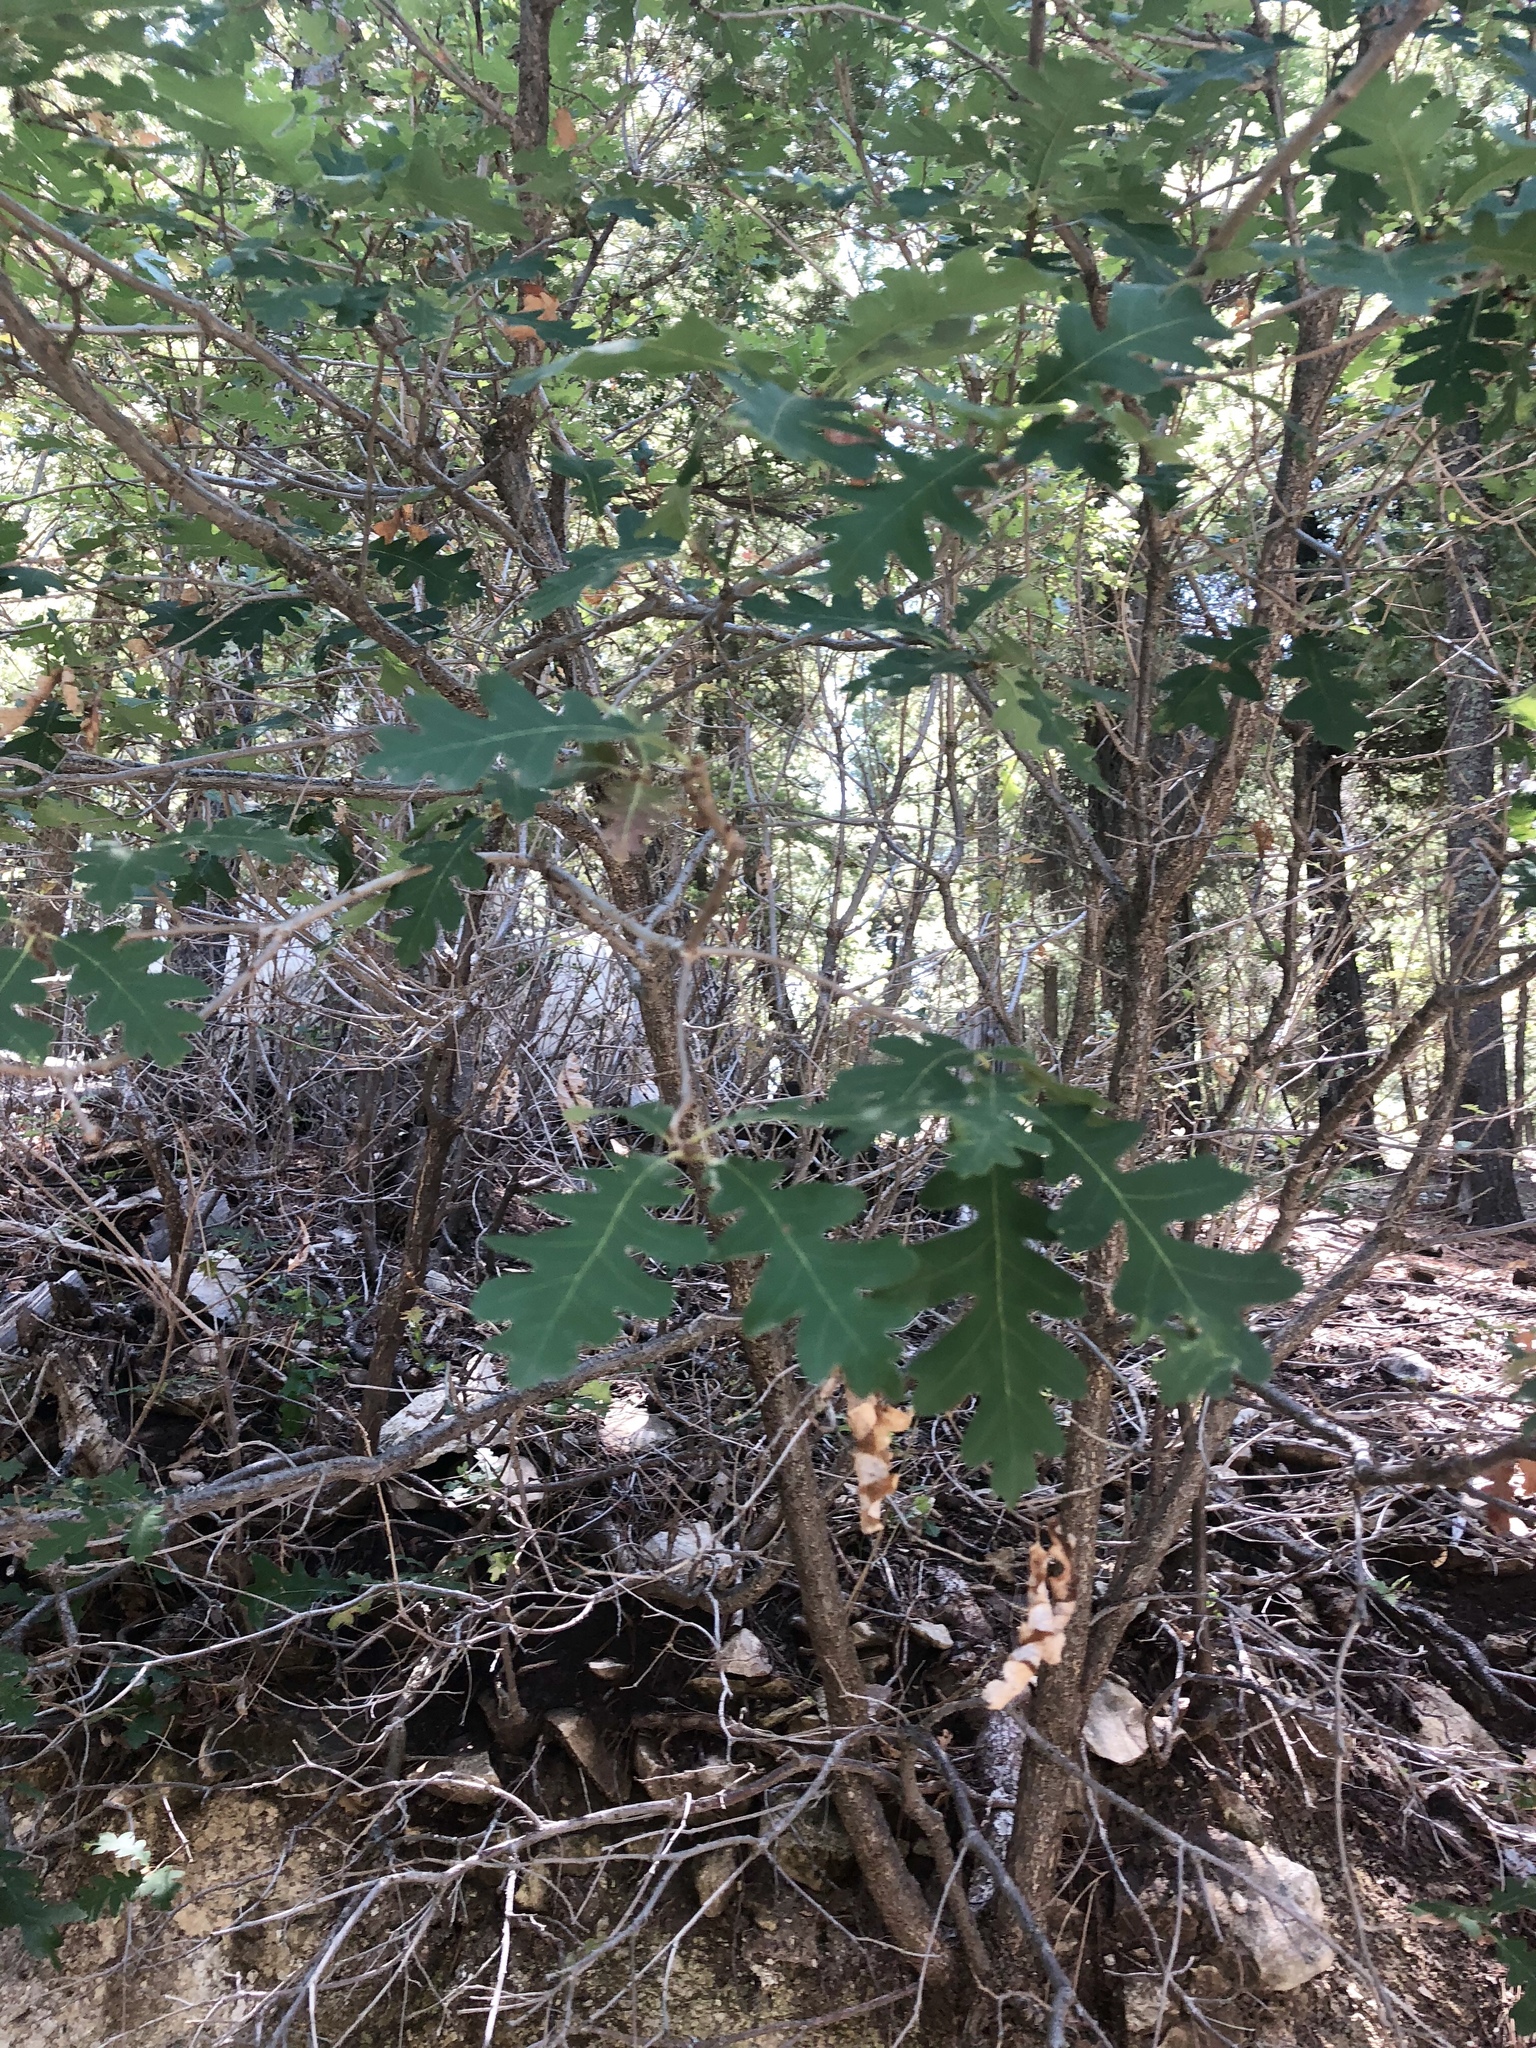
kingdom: Plantae
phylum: Tracheophyta
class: Magnoliopsida
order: Fagales
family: Fagaceae
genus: Quercus
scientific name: Quercus gambelii
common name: Gambel oak
